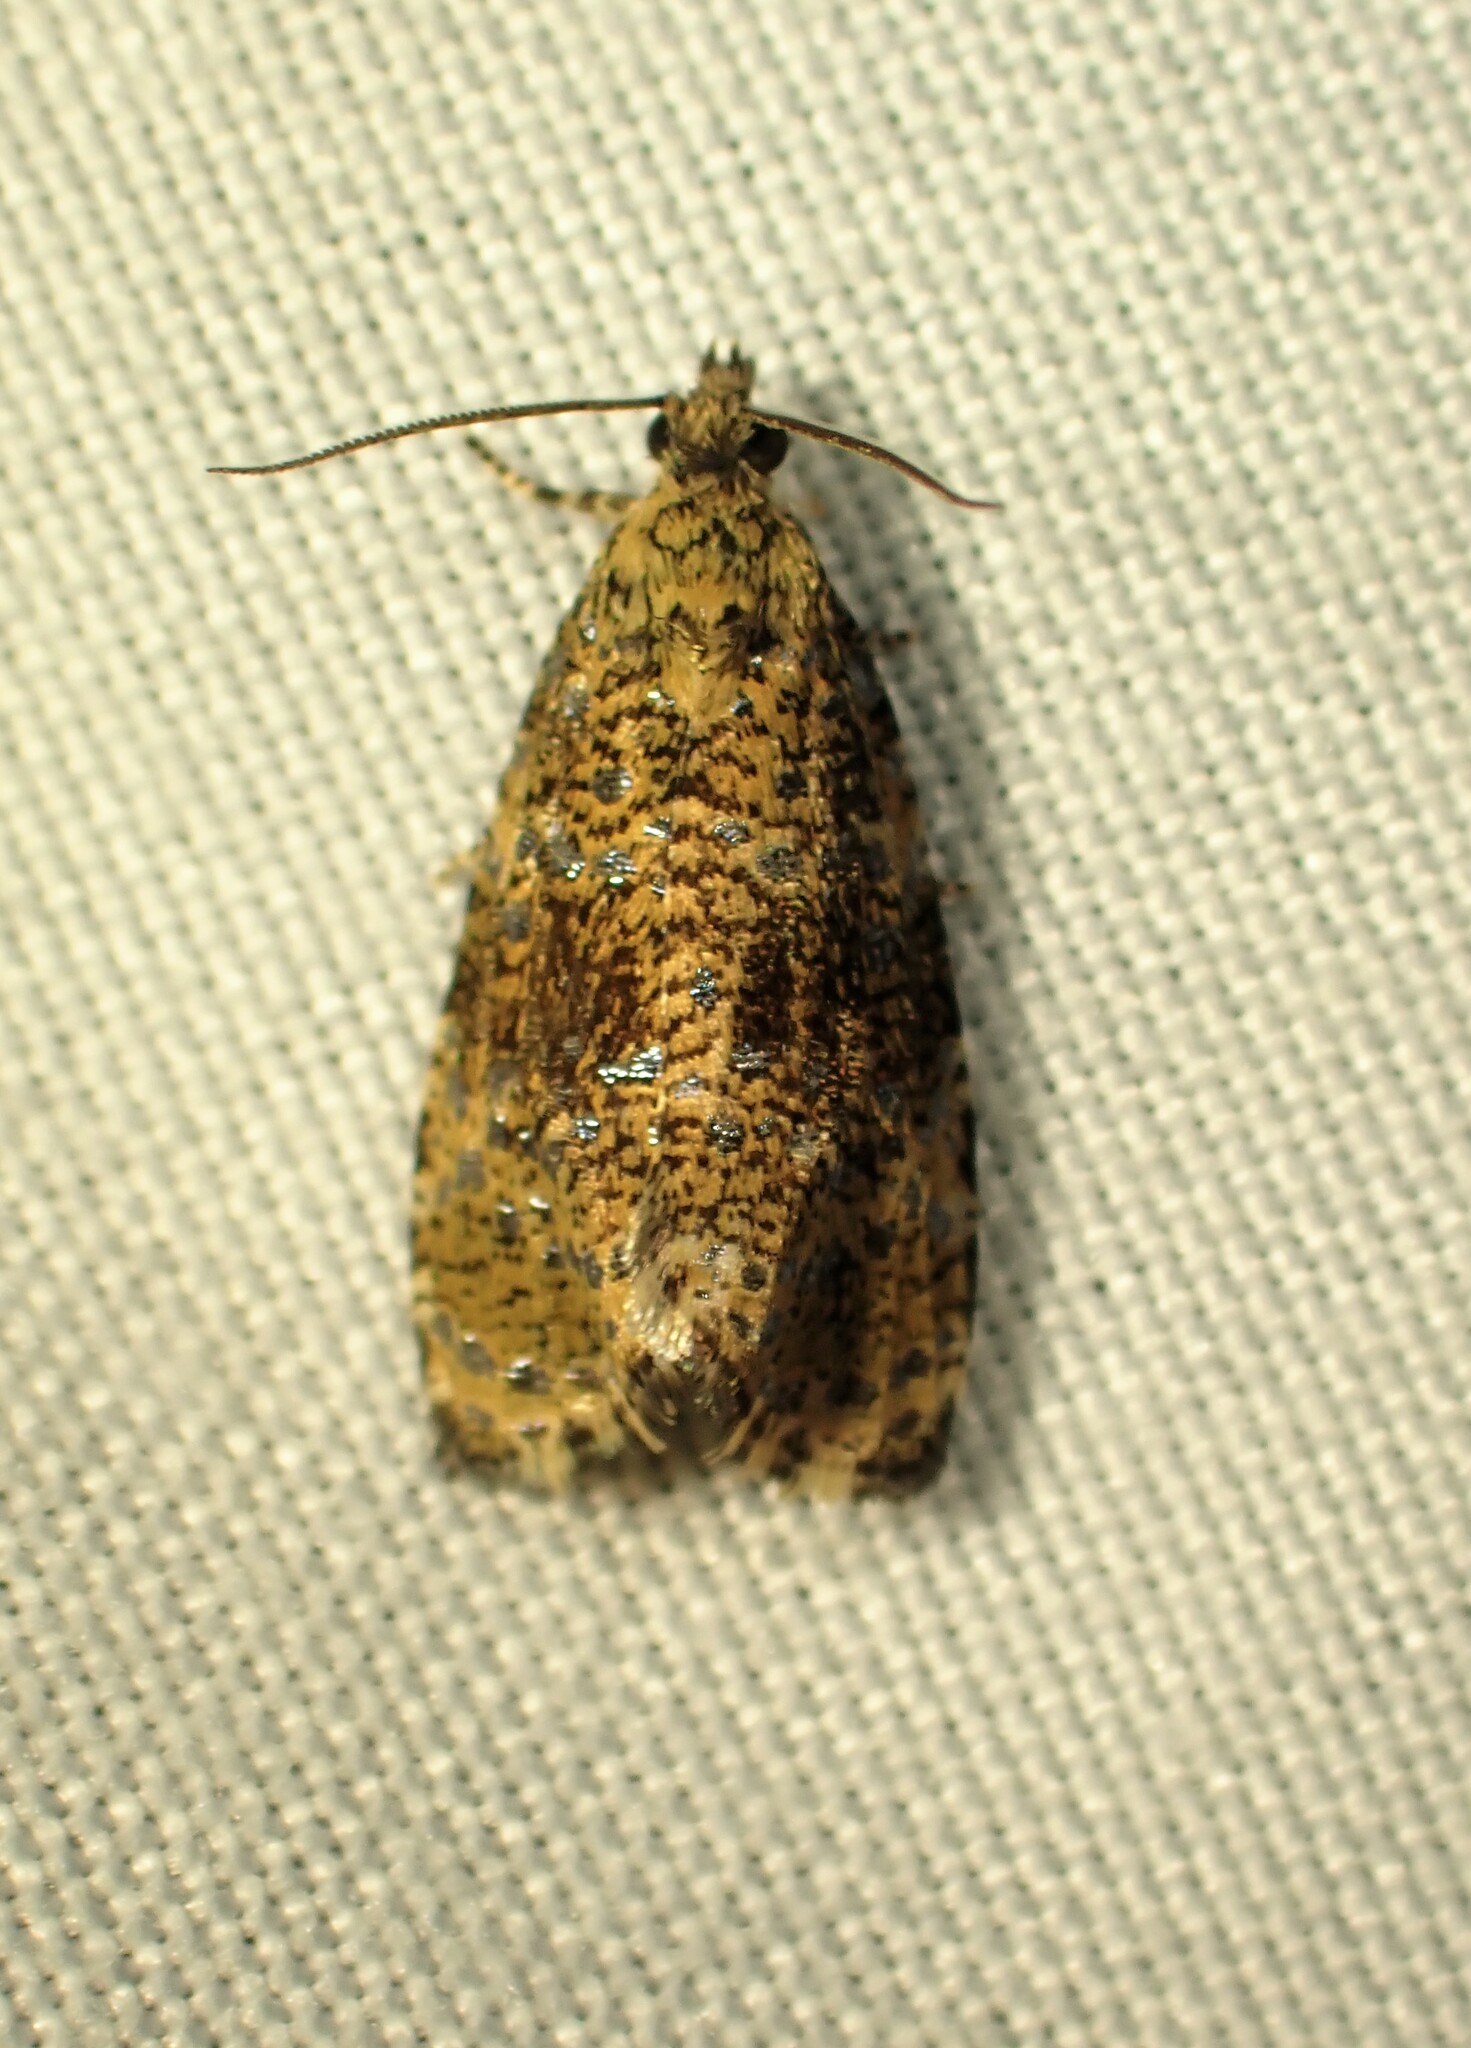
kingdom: Animalia
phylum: Arthropoda
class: Insecta
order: Lepidoptera
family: Tortricidae
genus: Olethreutes
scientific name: Olethreutes astrologana
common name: Astronomer moth
